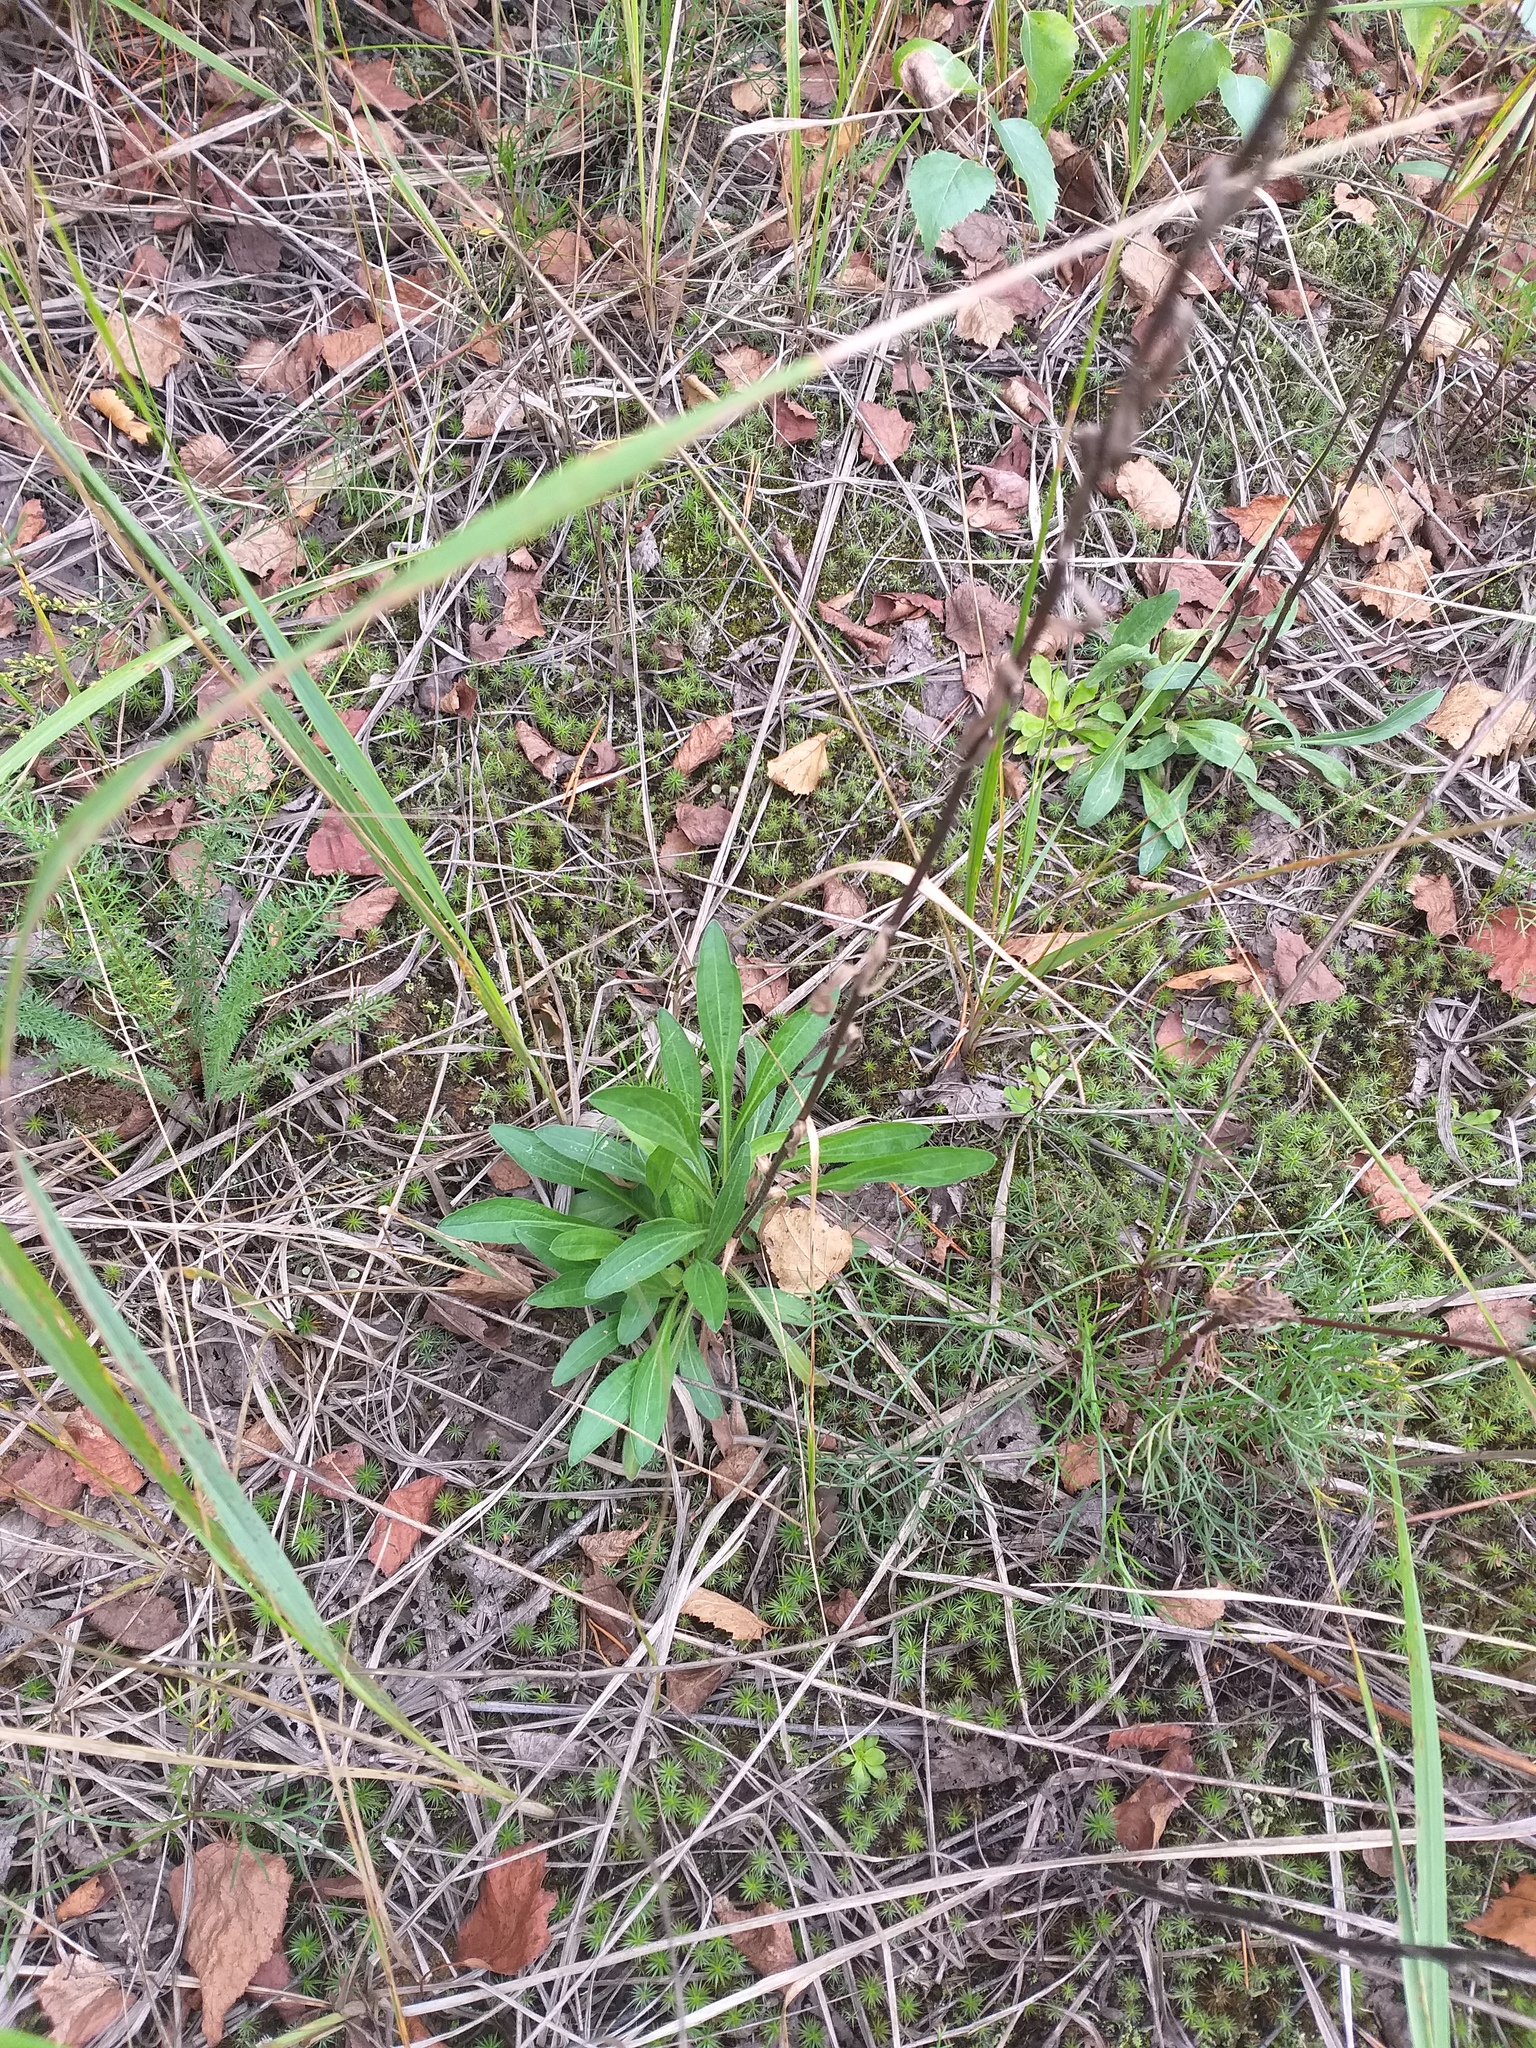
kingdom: Plantae
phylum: Tracheophyta
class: Magnoliopsida
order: Asterales
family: Asteraceae
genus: Erigeron
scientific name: Erigeron acris
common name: Blue fleabane
